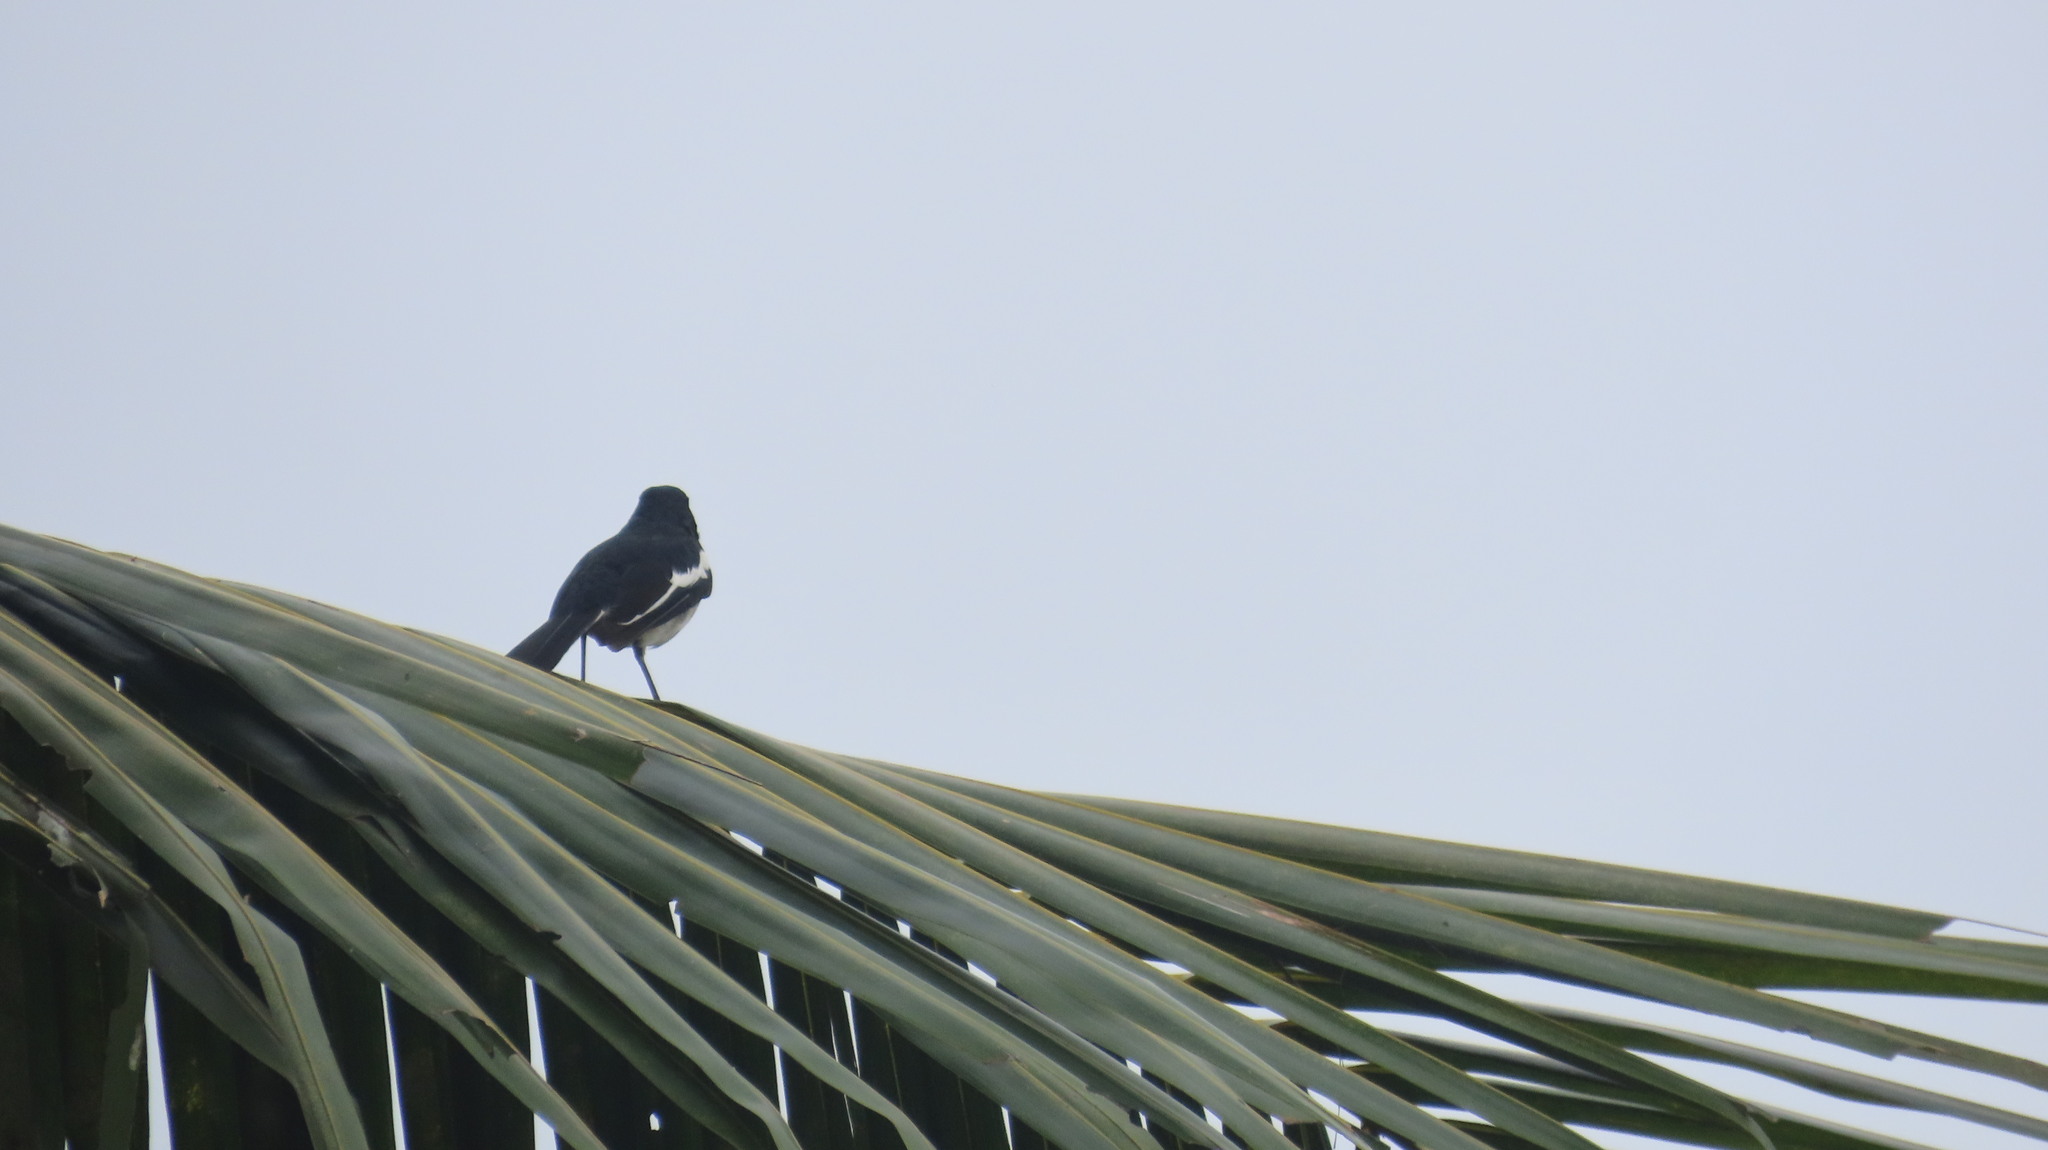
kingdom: Animalia
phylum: Chordata
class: Aves
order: Passeriformes
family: Muscicapidae
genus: Copsychus
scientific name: Copsychus saularis
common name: Oriental magpie-robin
